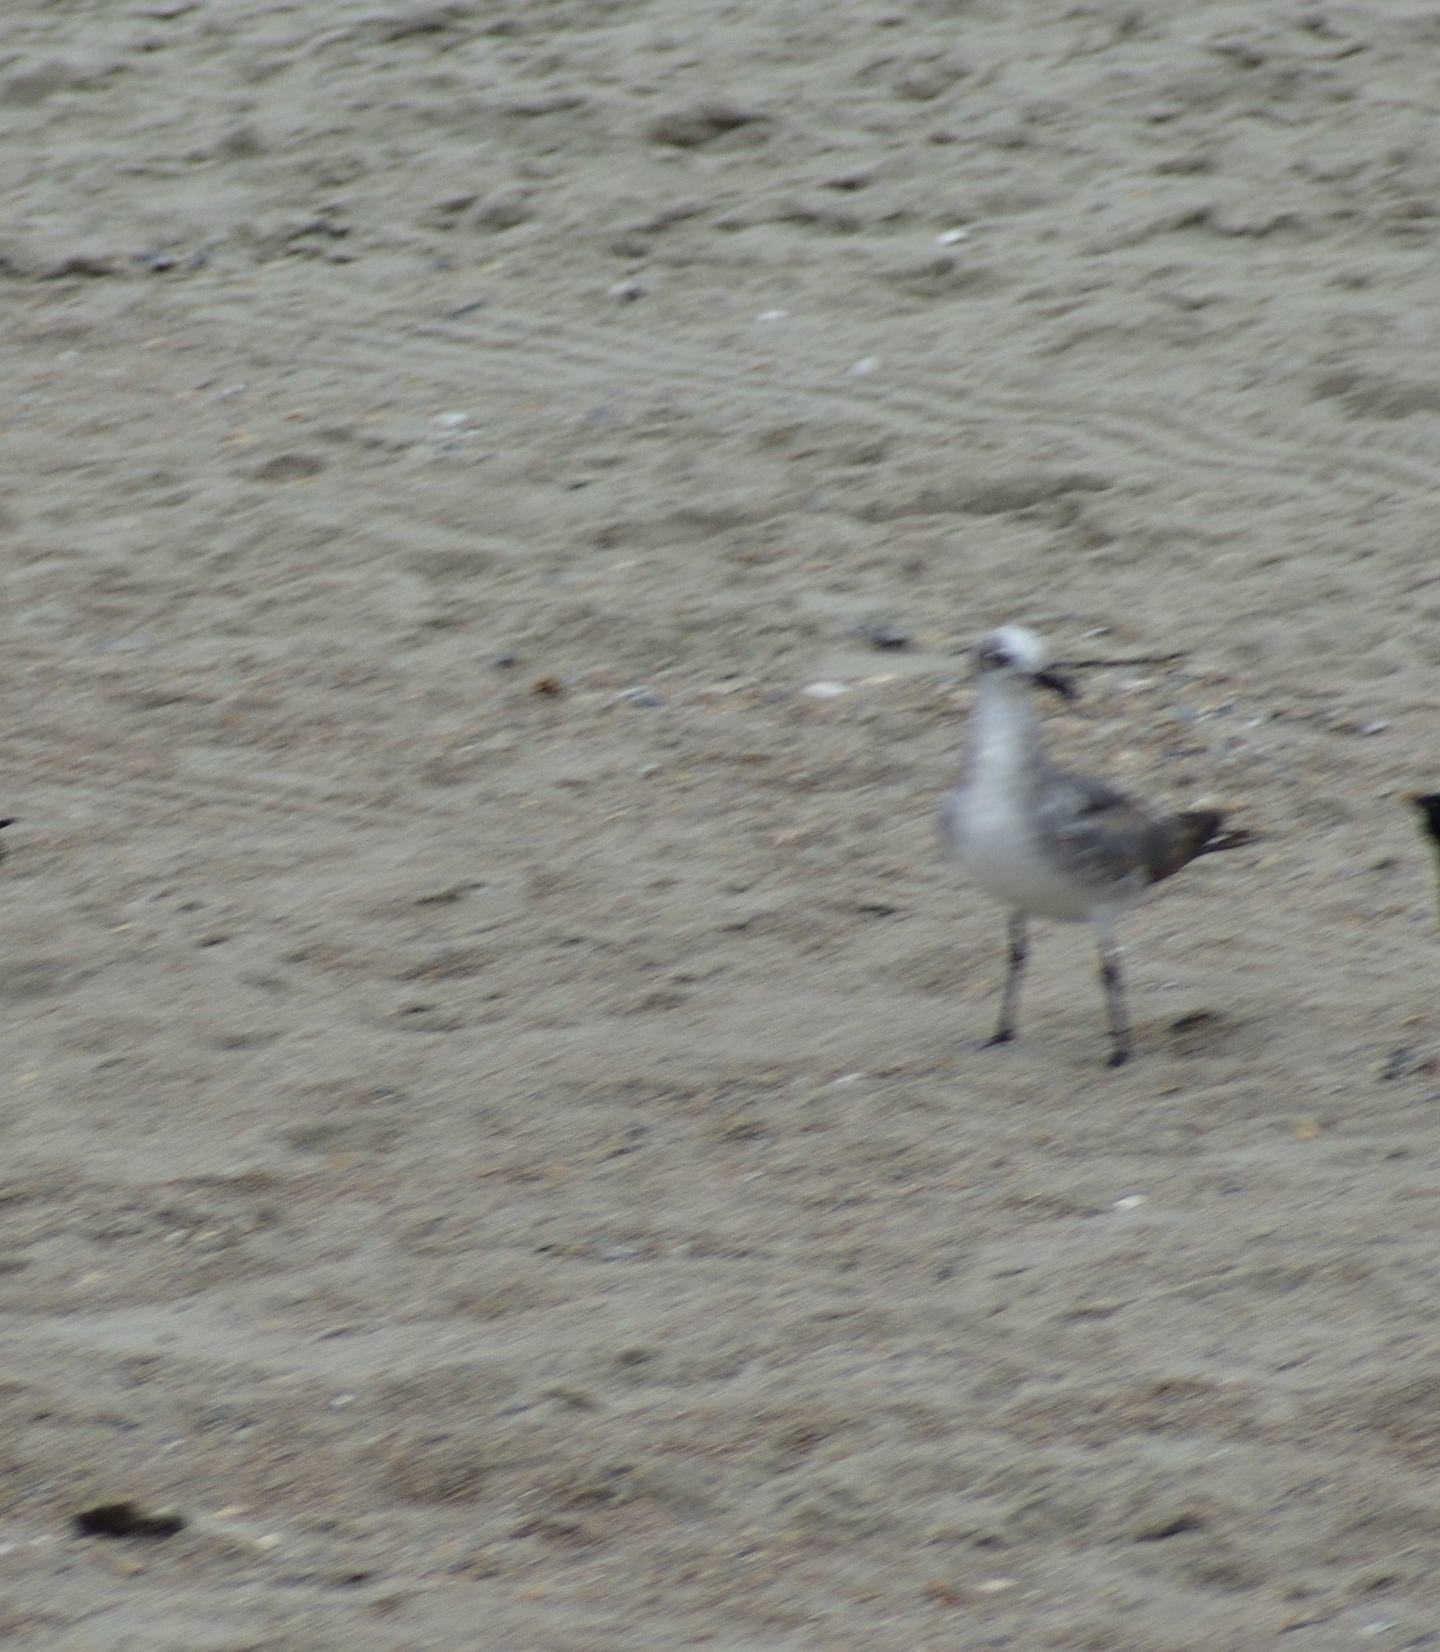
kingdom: Animalia
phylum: Chordata
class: Aves
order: Charadriiformes
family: Laridae
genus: Leucophaeus
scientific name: Leucophaeus atricilla
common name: Laughing gull
